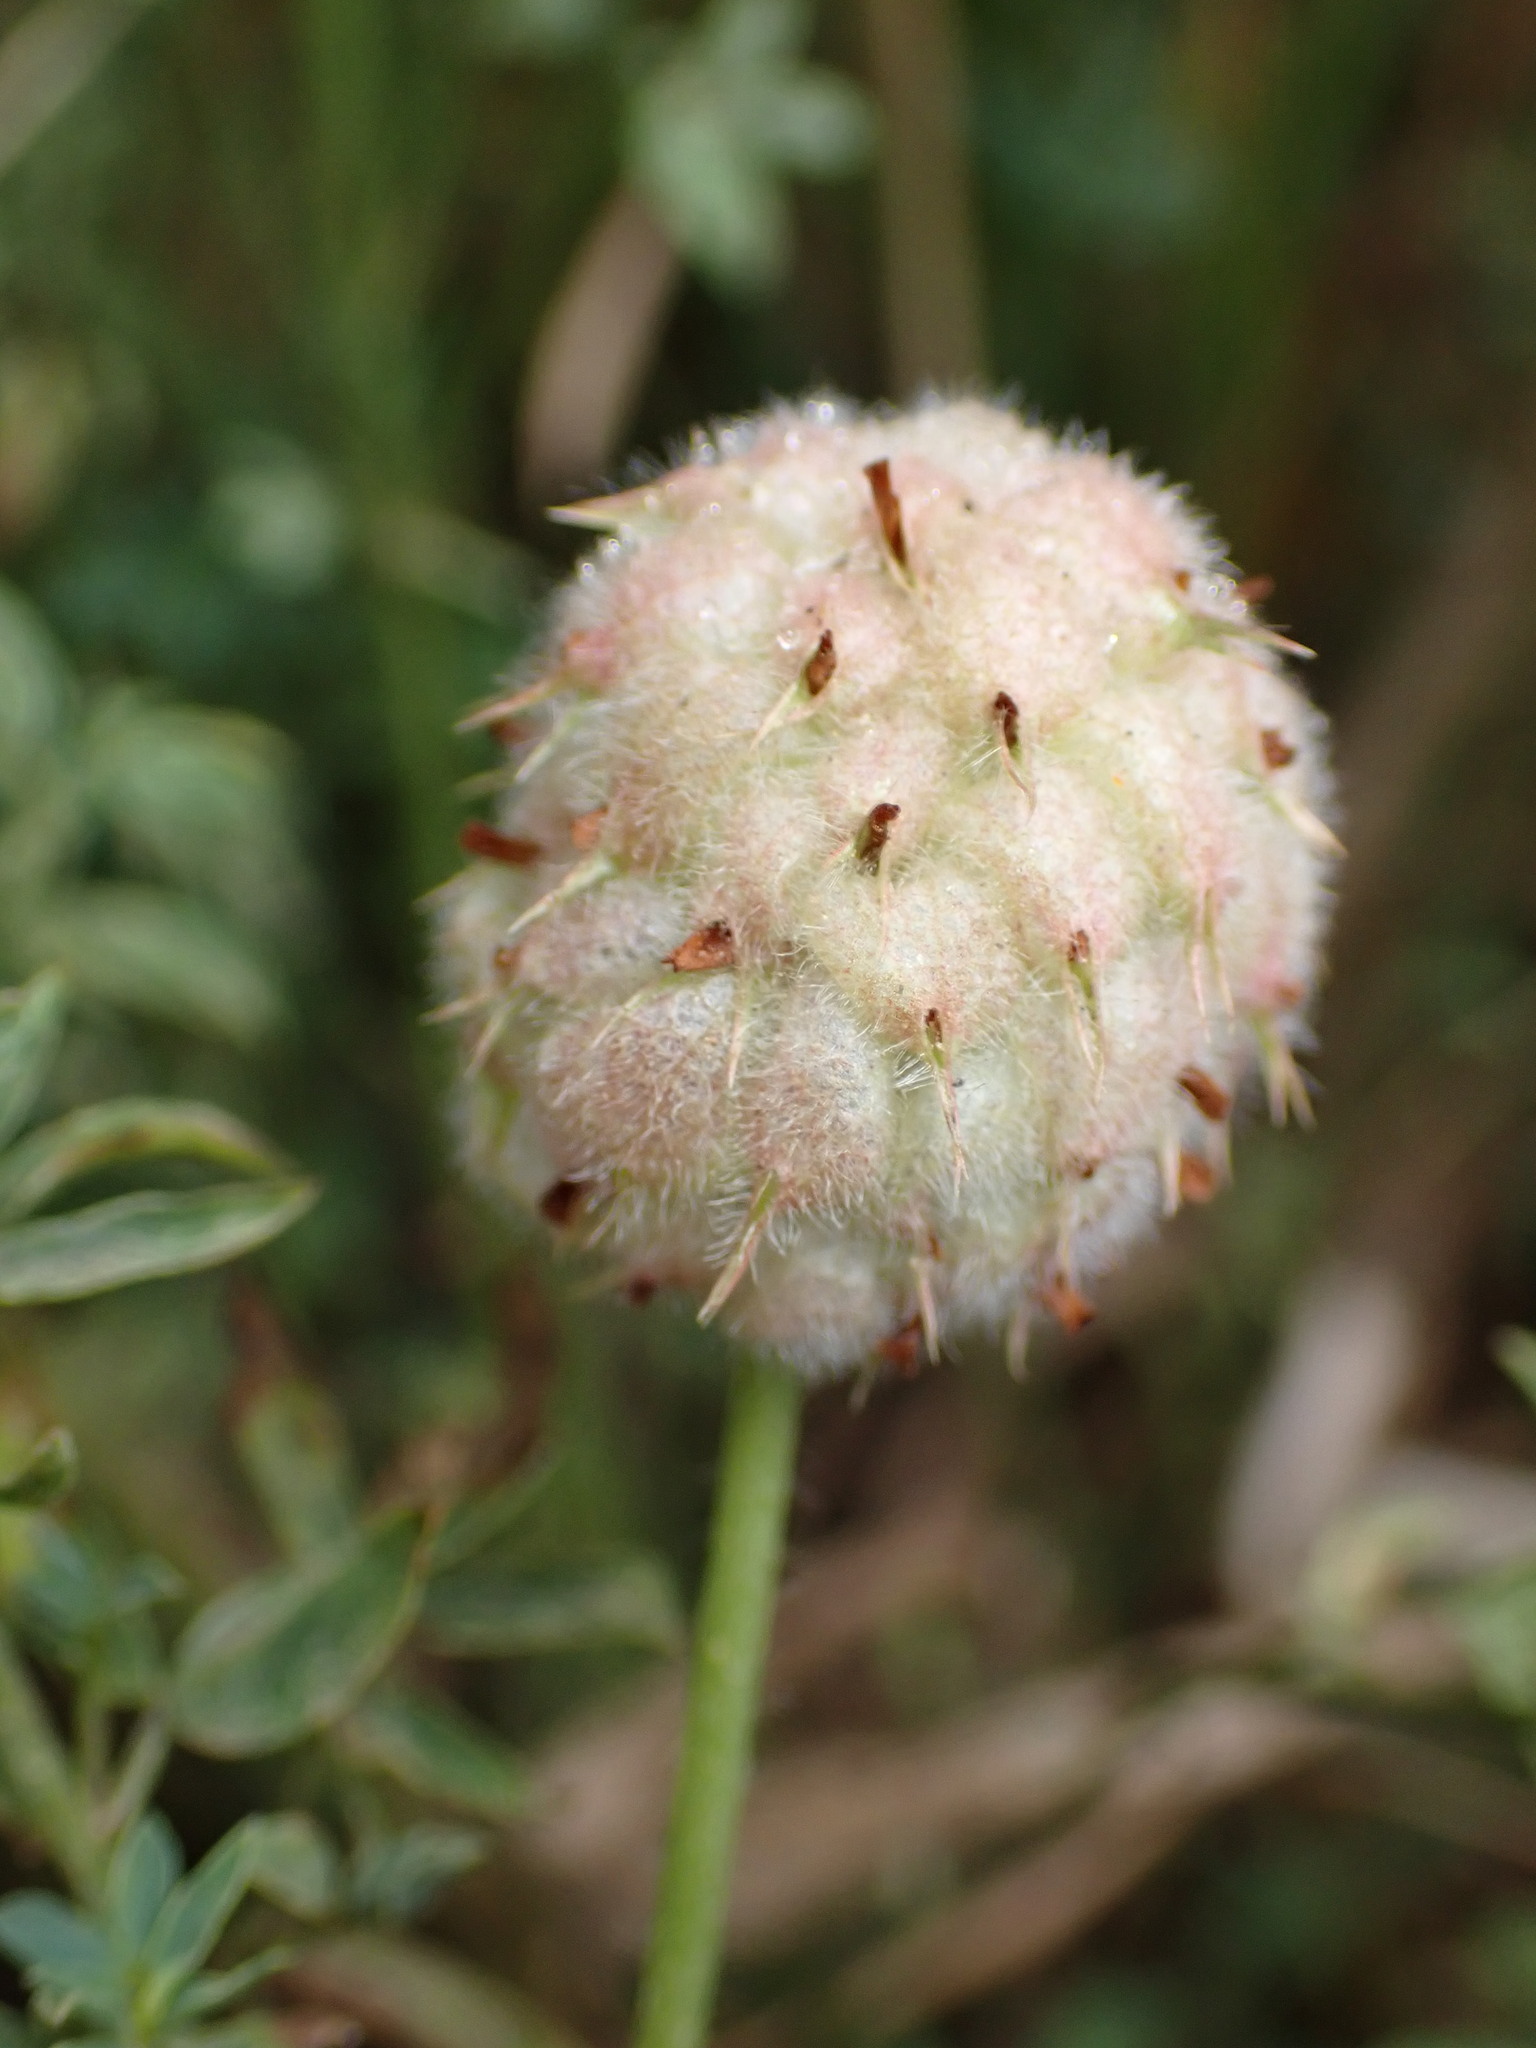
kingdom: Plantae
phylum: Tracheophyta
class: Magnoliopsida
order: Fabales
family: Fabaceae
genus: Trifolium
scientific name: Trifolium fragiferum
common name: Strawberry clover
